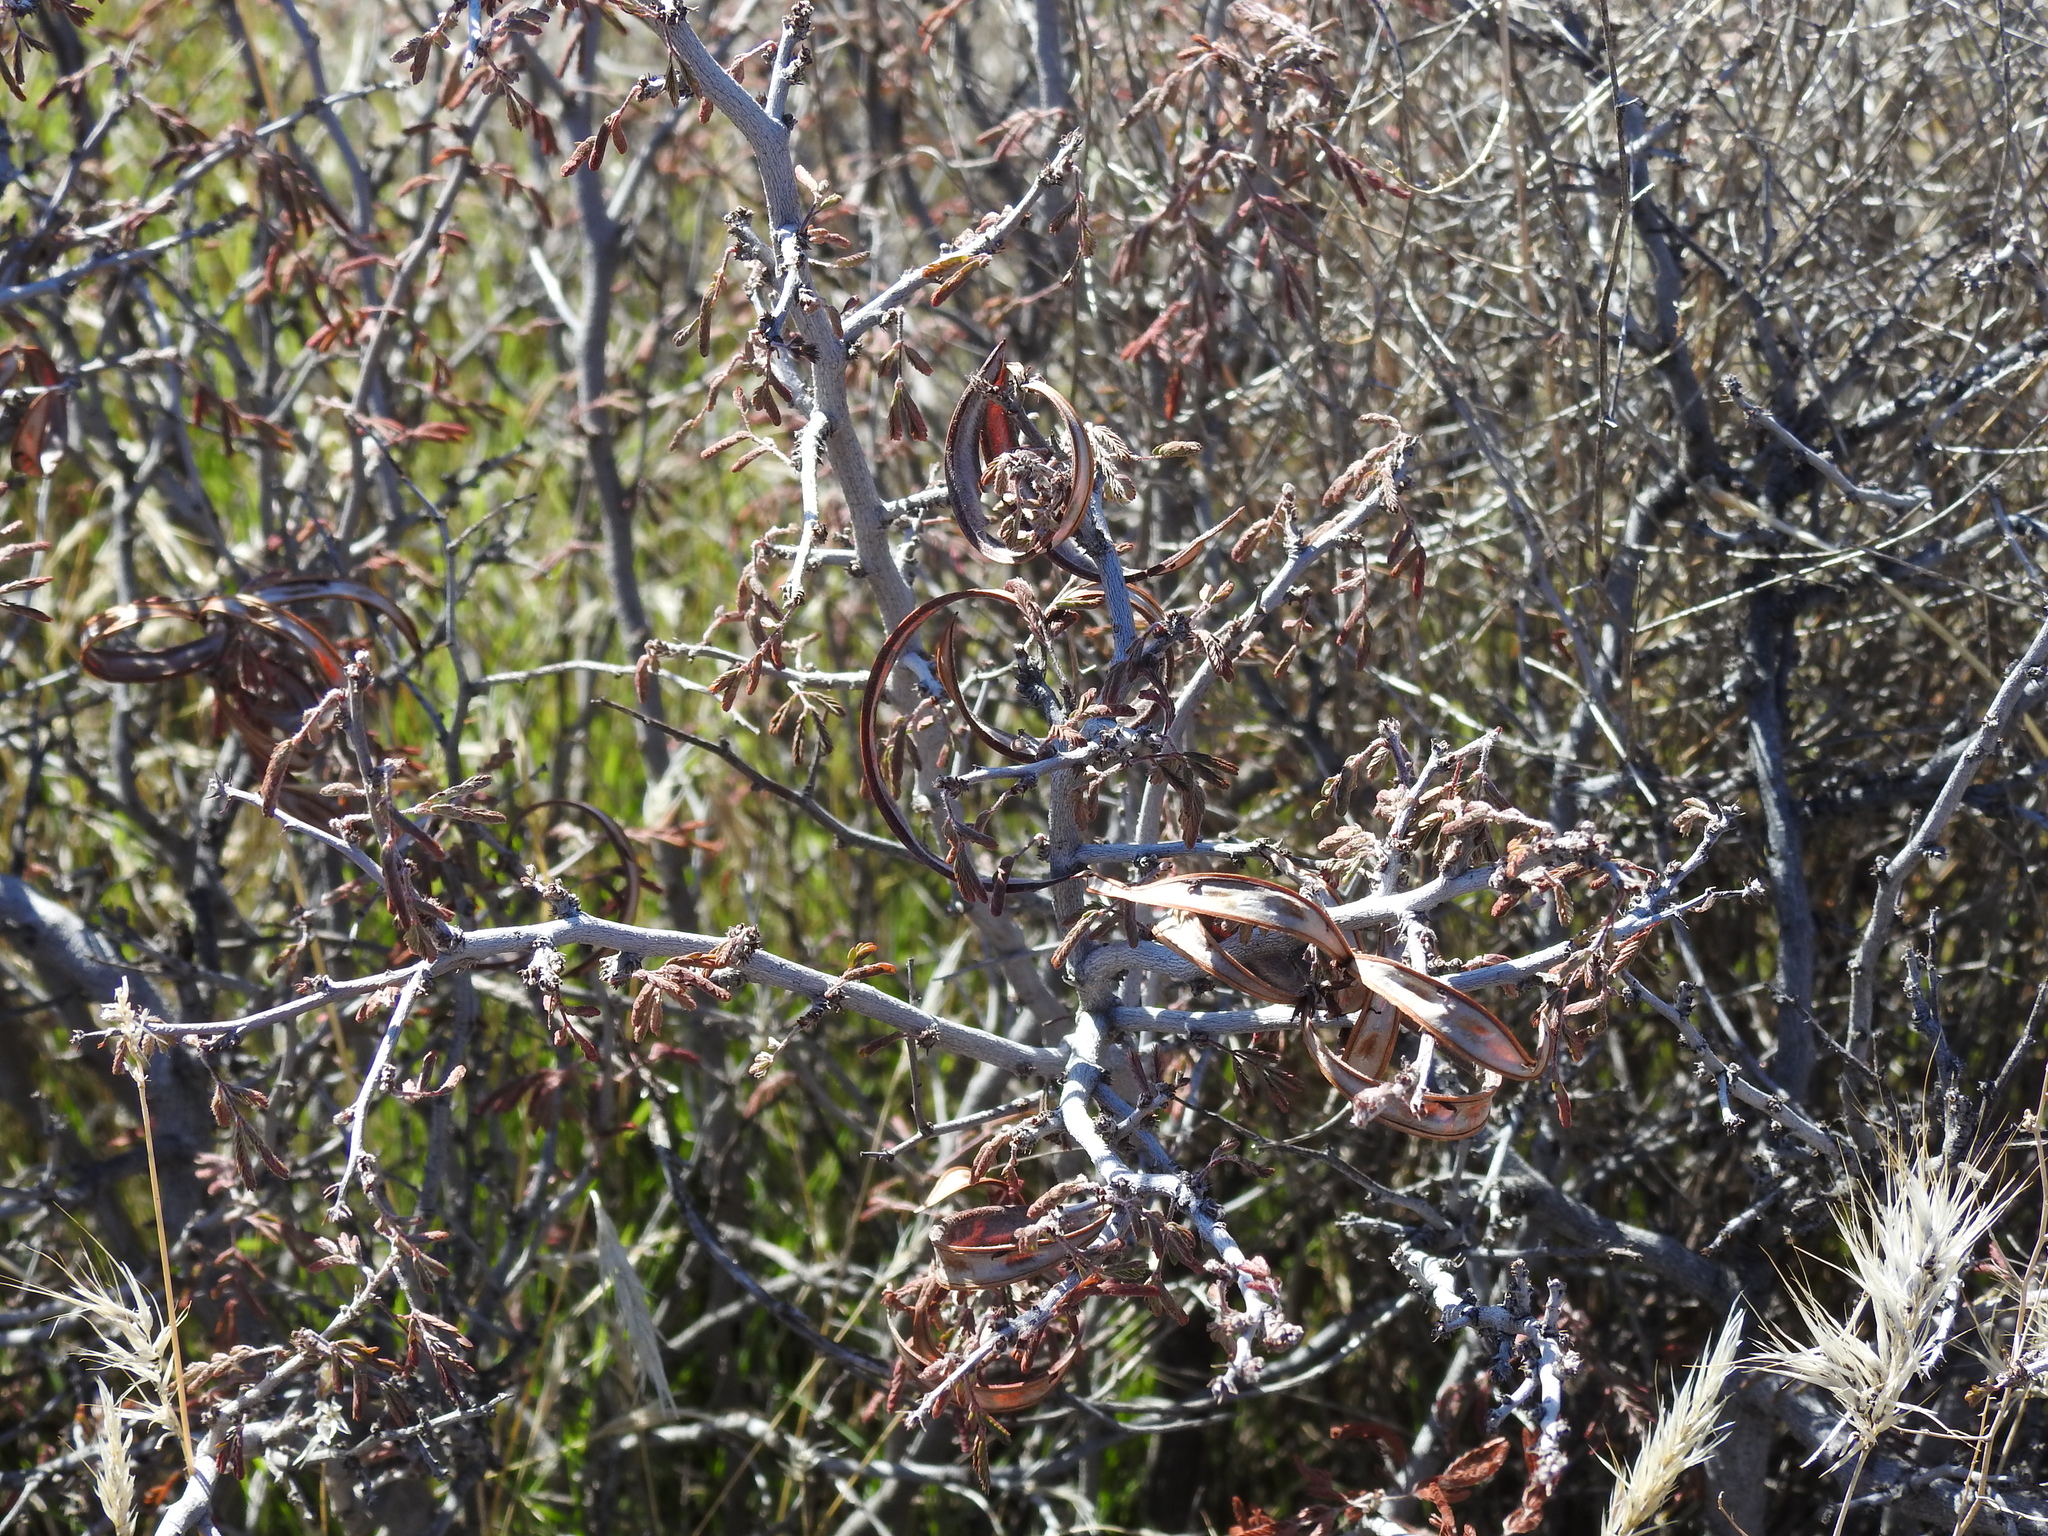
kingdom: Plantae
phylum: Tracheophyta
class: Magnoliopsida
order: Fabales
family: Fabaceae
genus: Calliandra
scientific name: Calliandra eriophylla
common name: Fairy-duster
